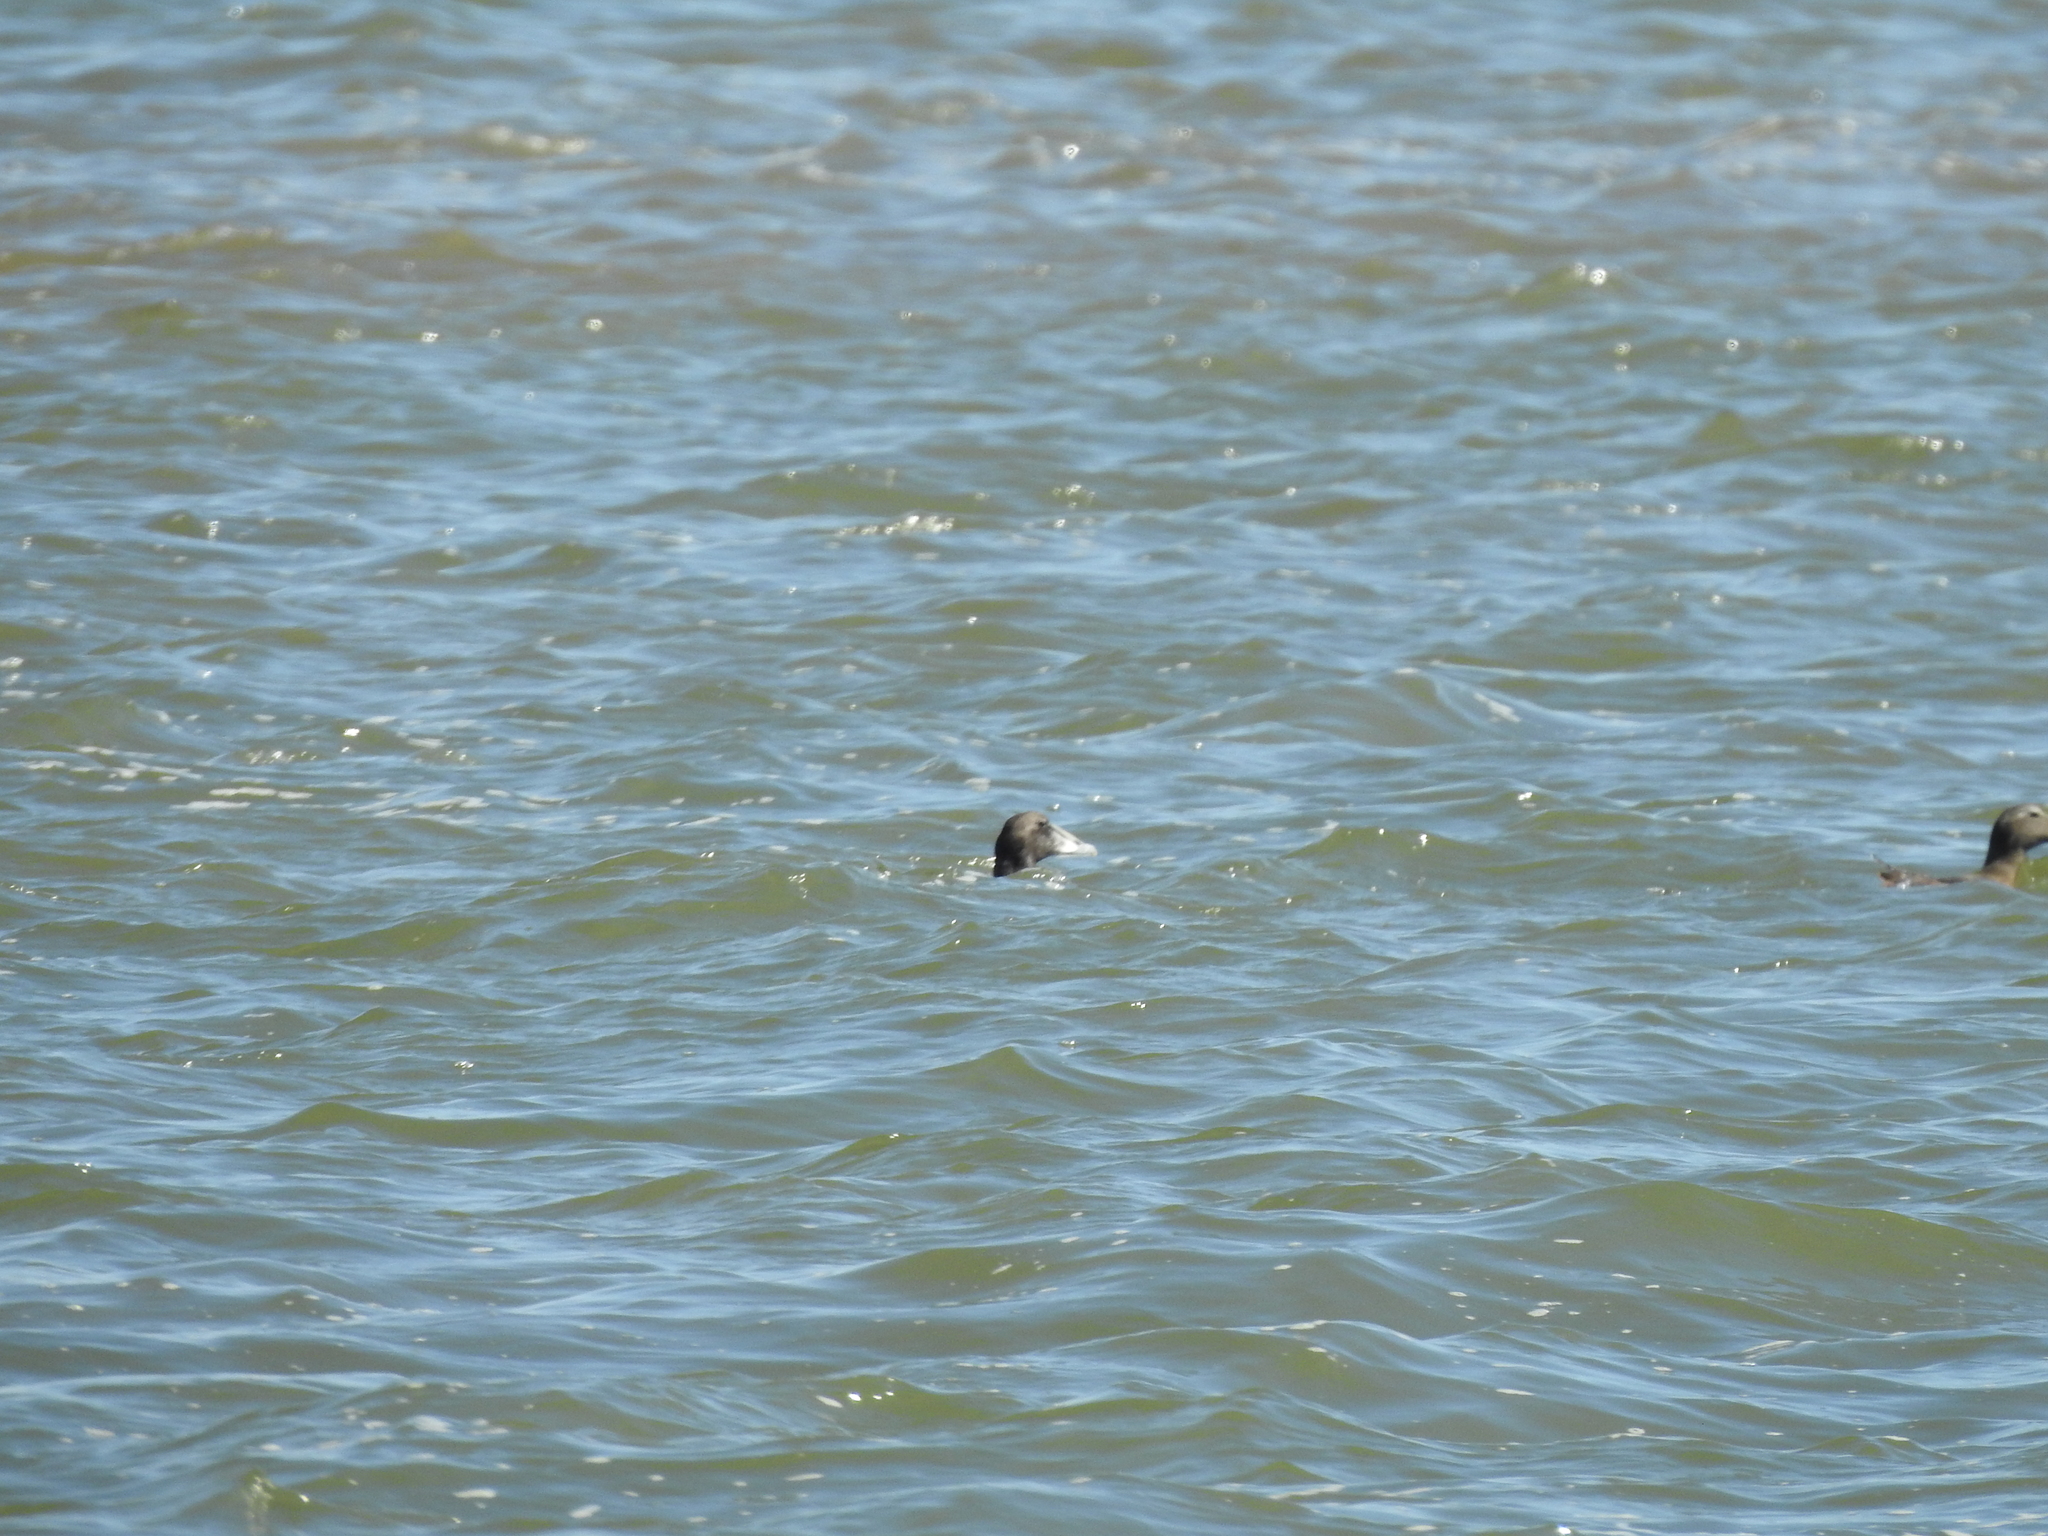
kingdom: Animalia
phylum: Chordata
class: Aves
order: Anseriformes
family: Anatidae
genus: Somateria
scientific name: Somateria mollissima
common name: Common eider
